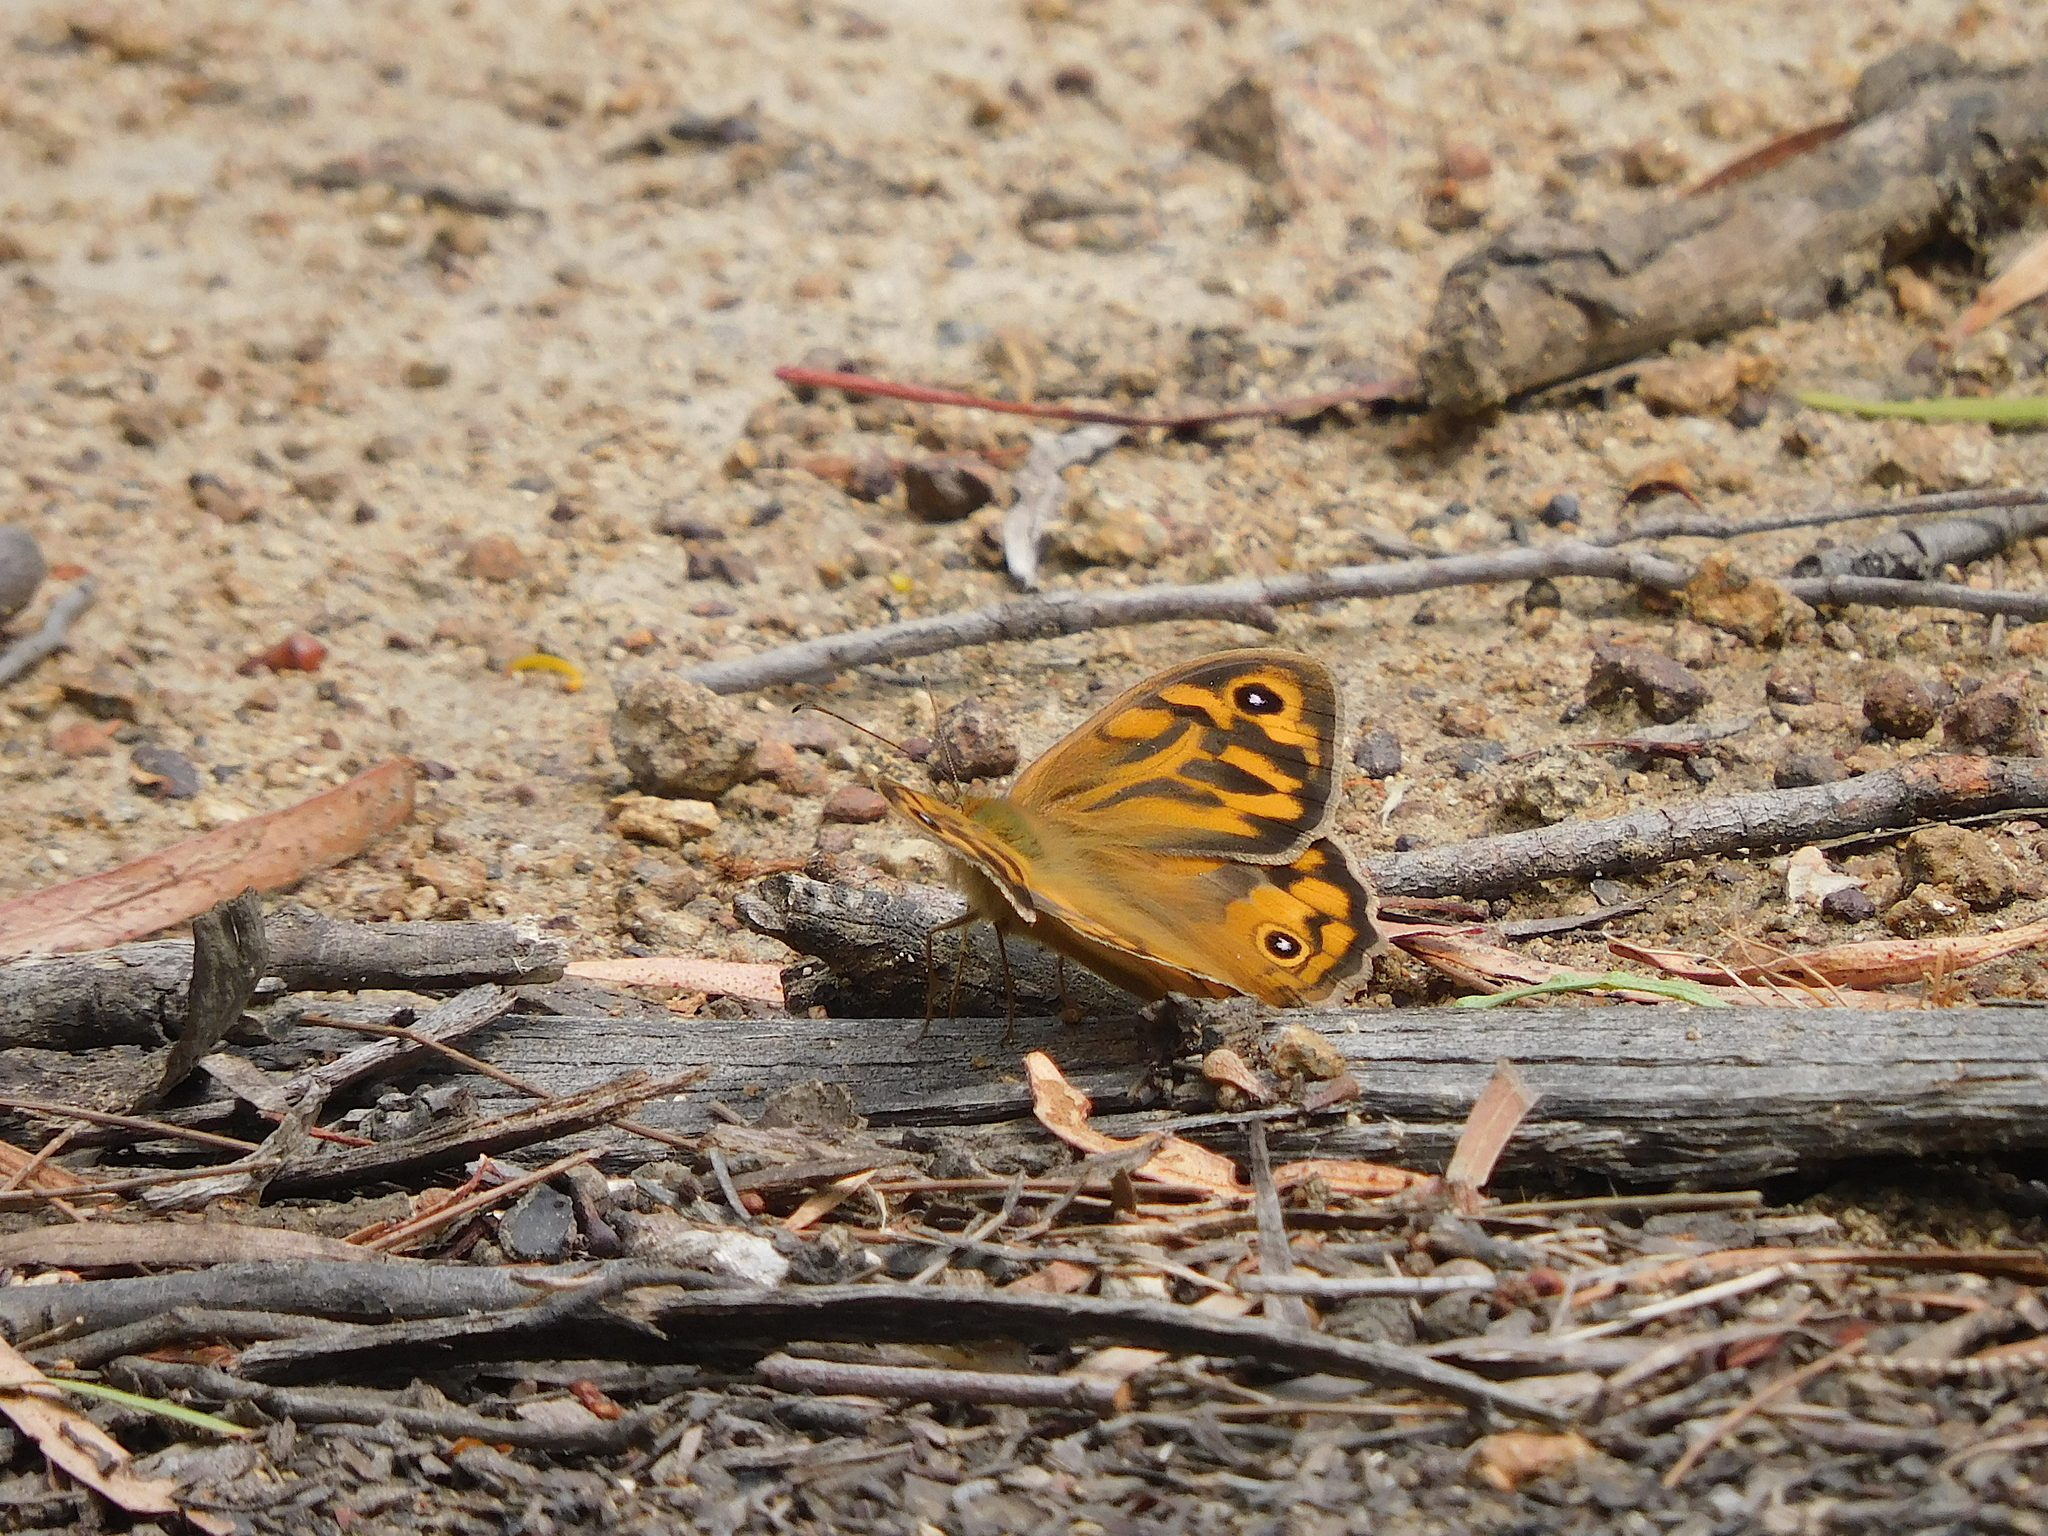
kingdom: Animalia
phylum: Arthropoda
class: Insecta
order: Lepidoptera
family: Nymphalidae
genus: Heteronympha
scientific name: Heteronympha merope
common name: Common brown
